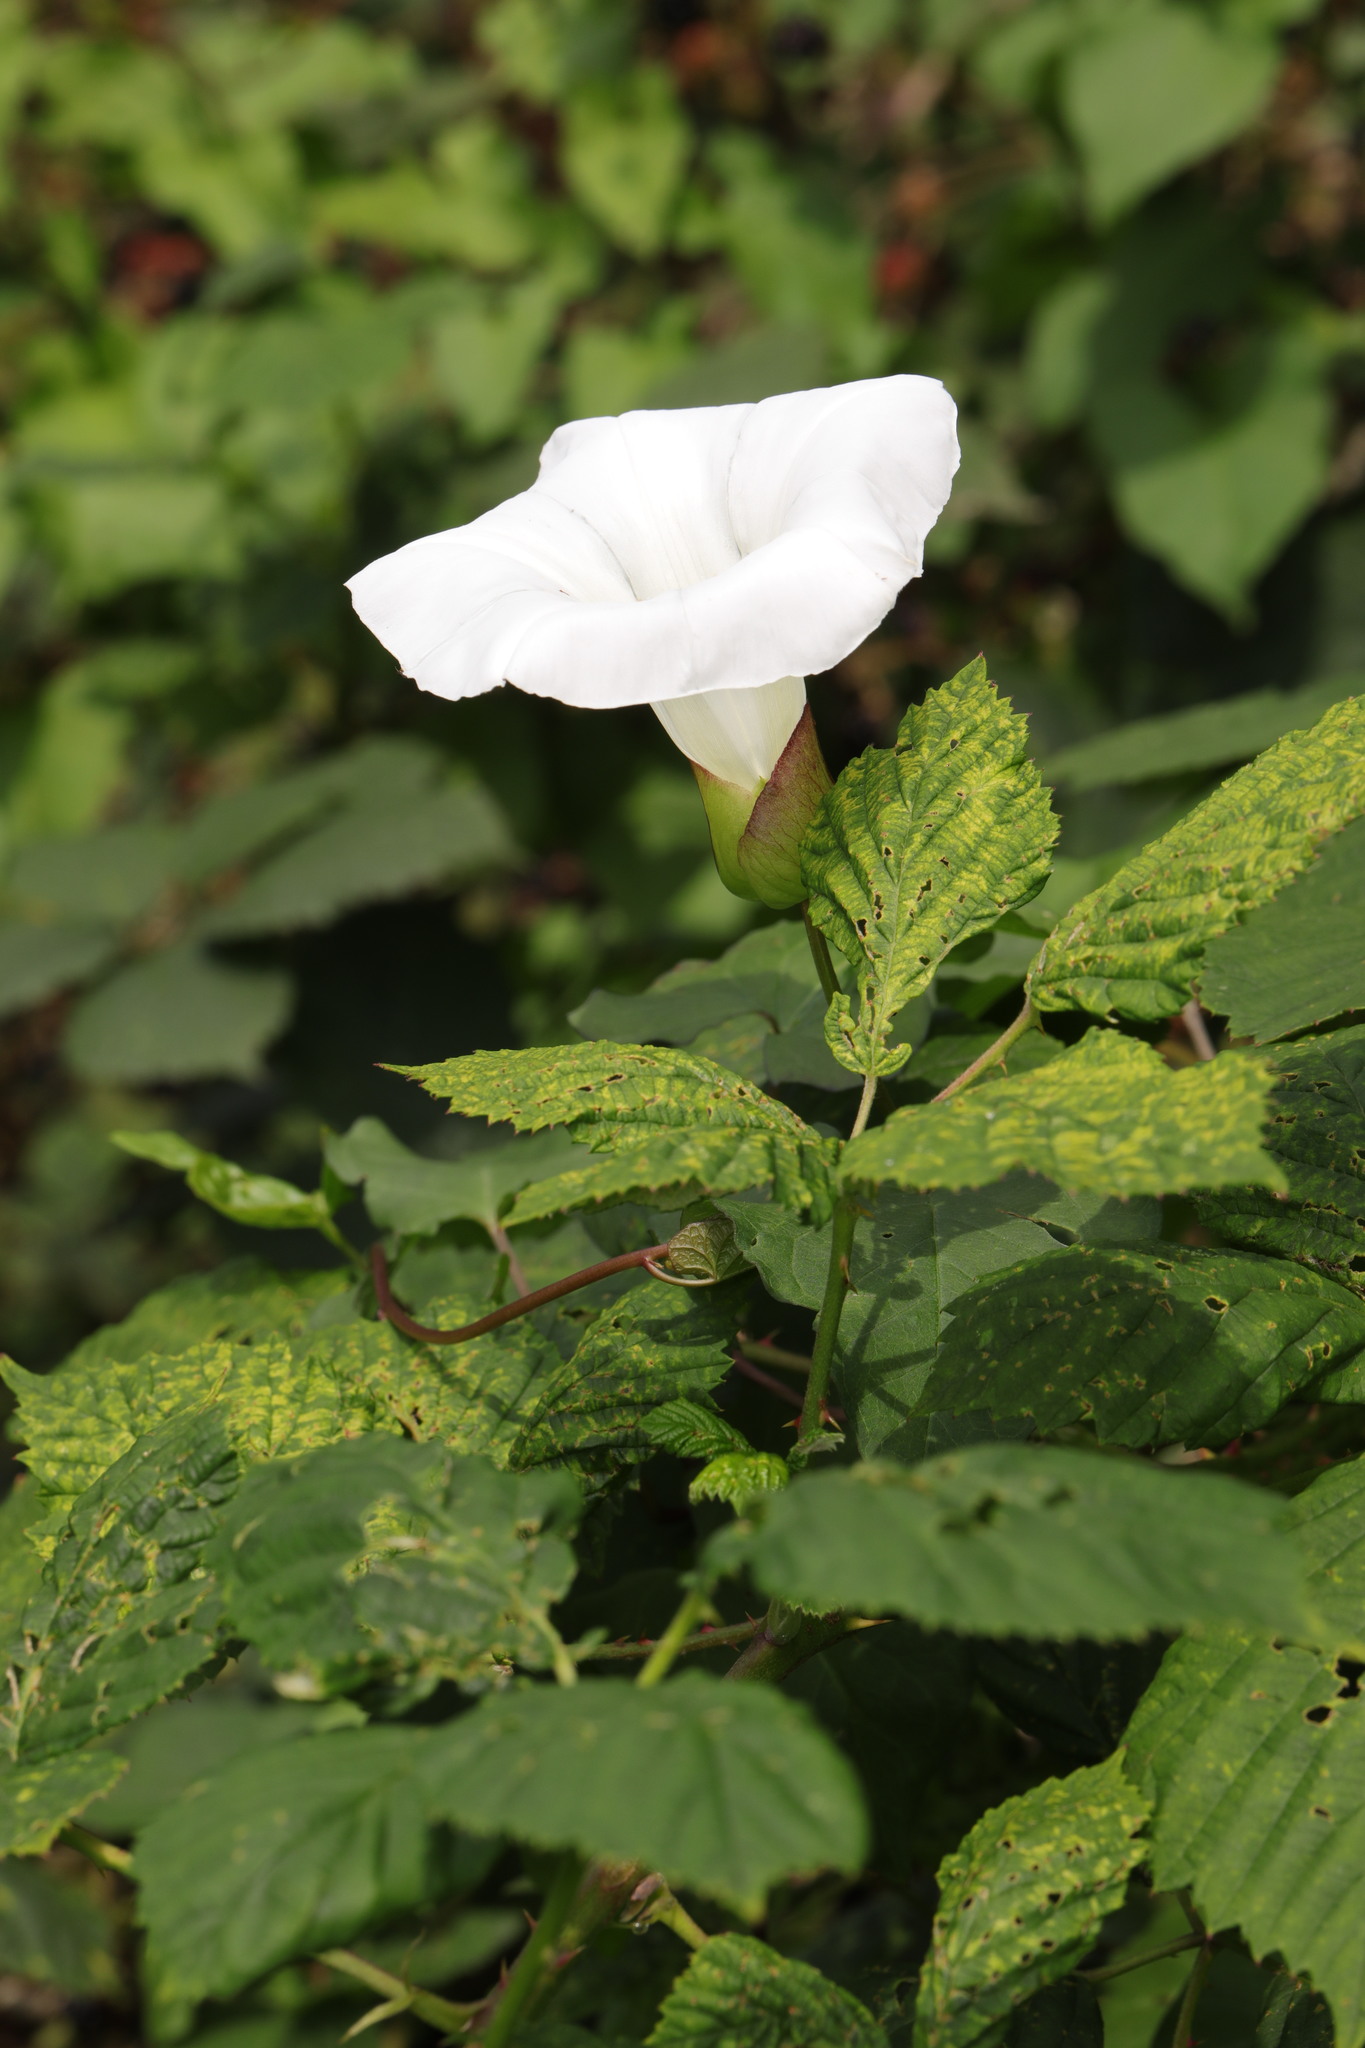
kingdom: Plantae
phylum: Tracheophyta
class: Magnoliopsida
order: Solanales
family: Convolvulaceae
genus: Calystegia
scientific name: Calystegia silvatica
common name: Large bindweed
